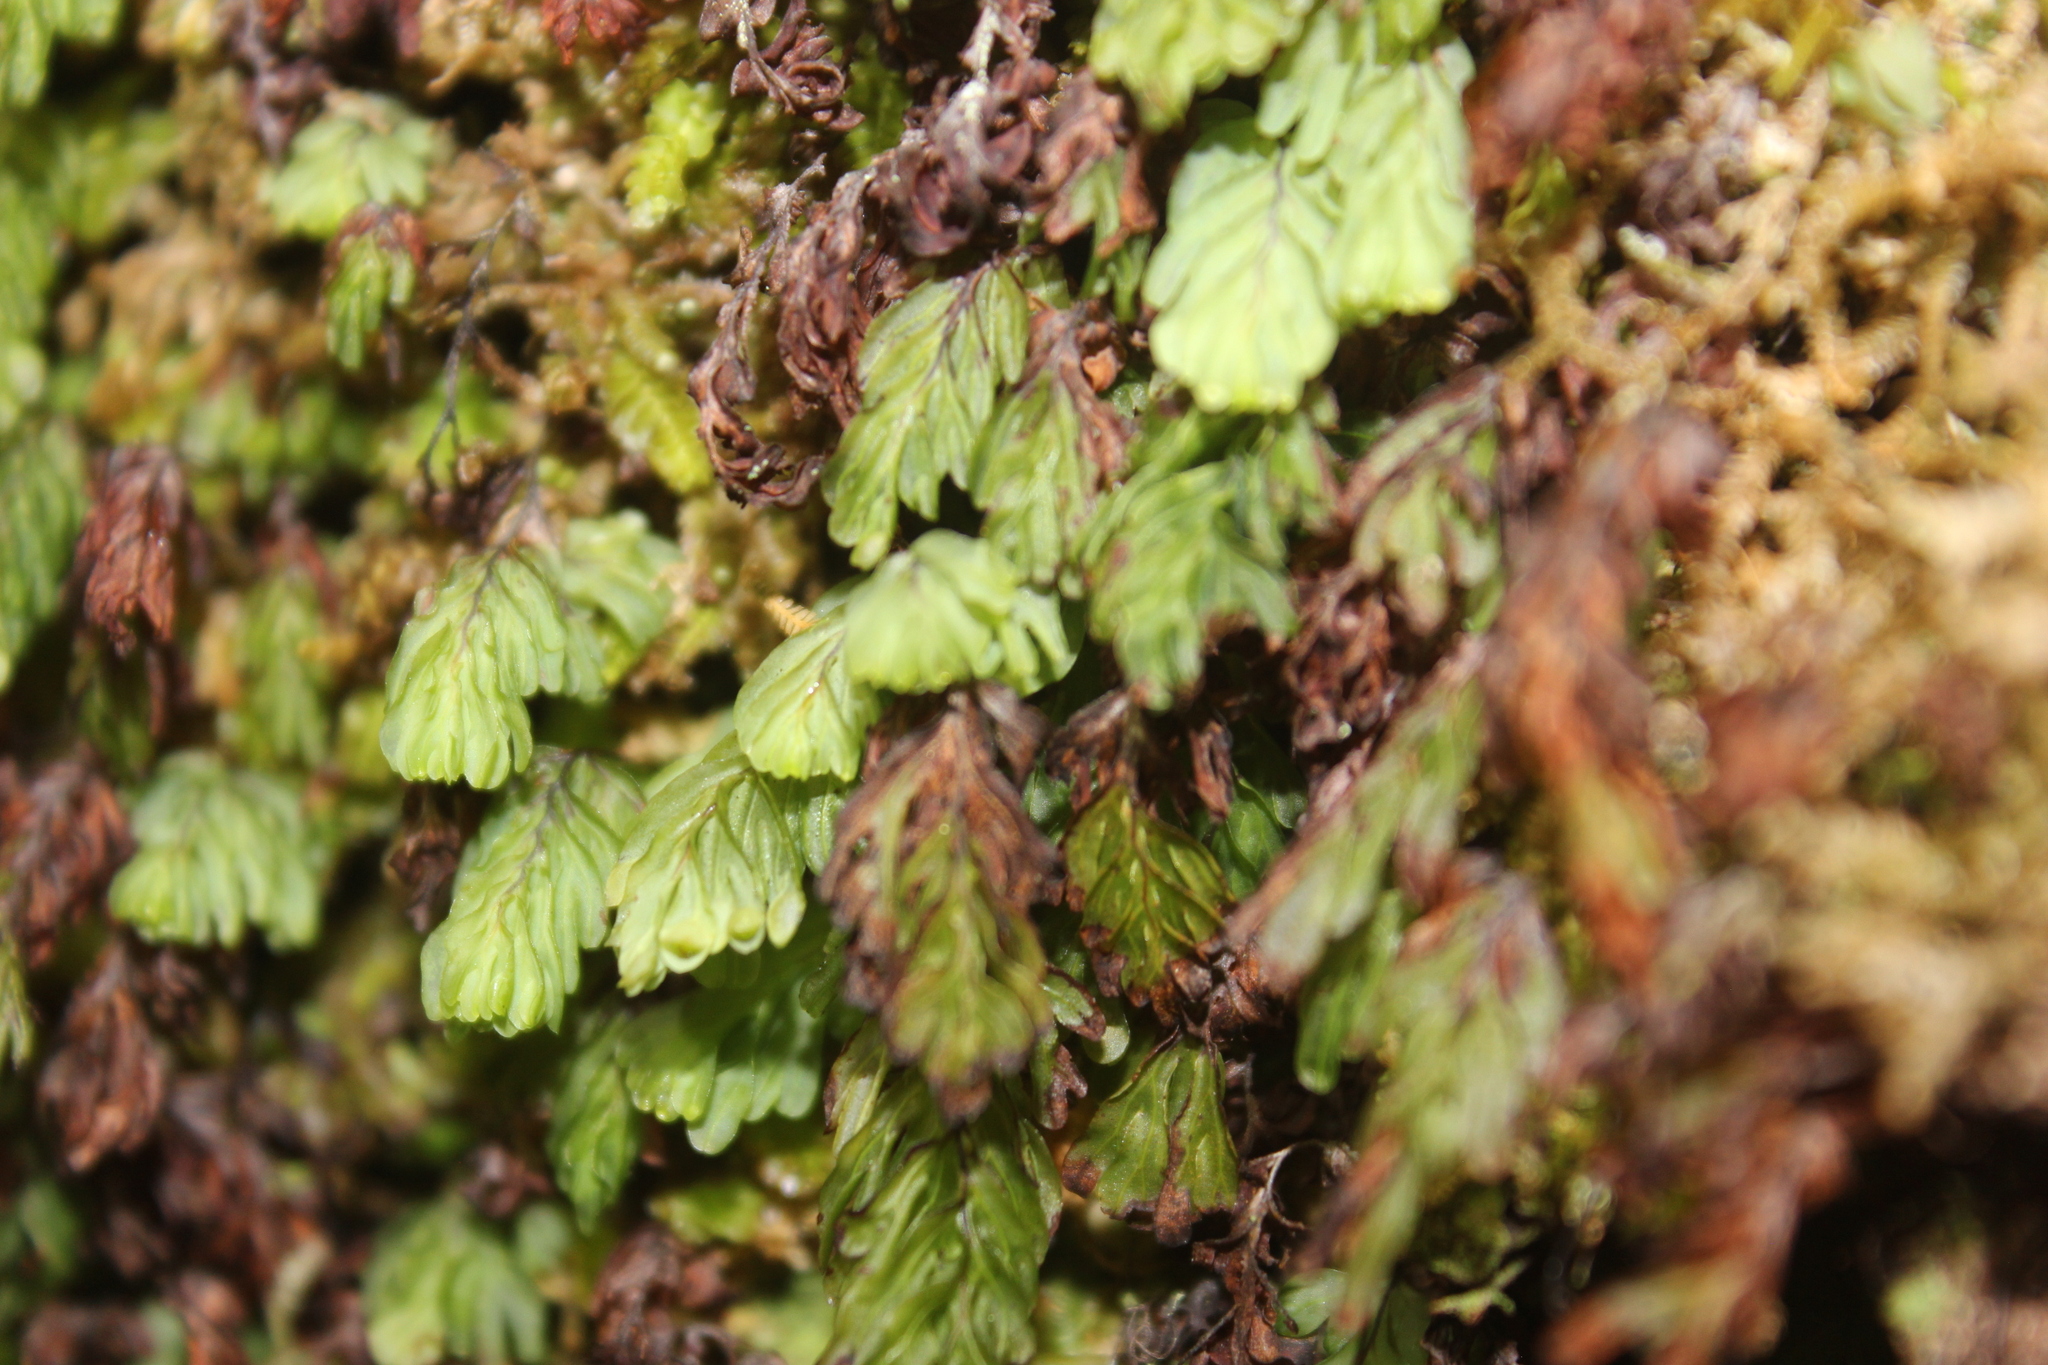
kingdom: Plantae
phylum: Tracheophyta
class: Polypodiopsida
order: Hymenophyllales
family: Hymenophyllaceae
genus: Hymenophyllum
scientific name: Hymenophyllum rarum
